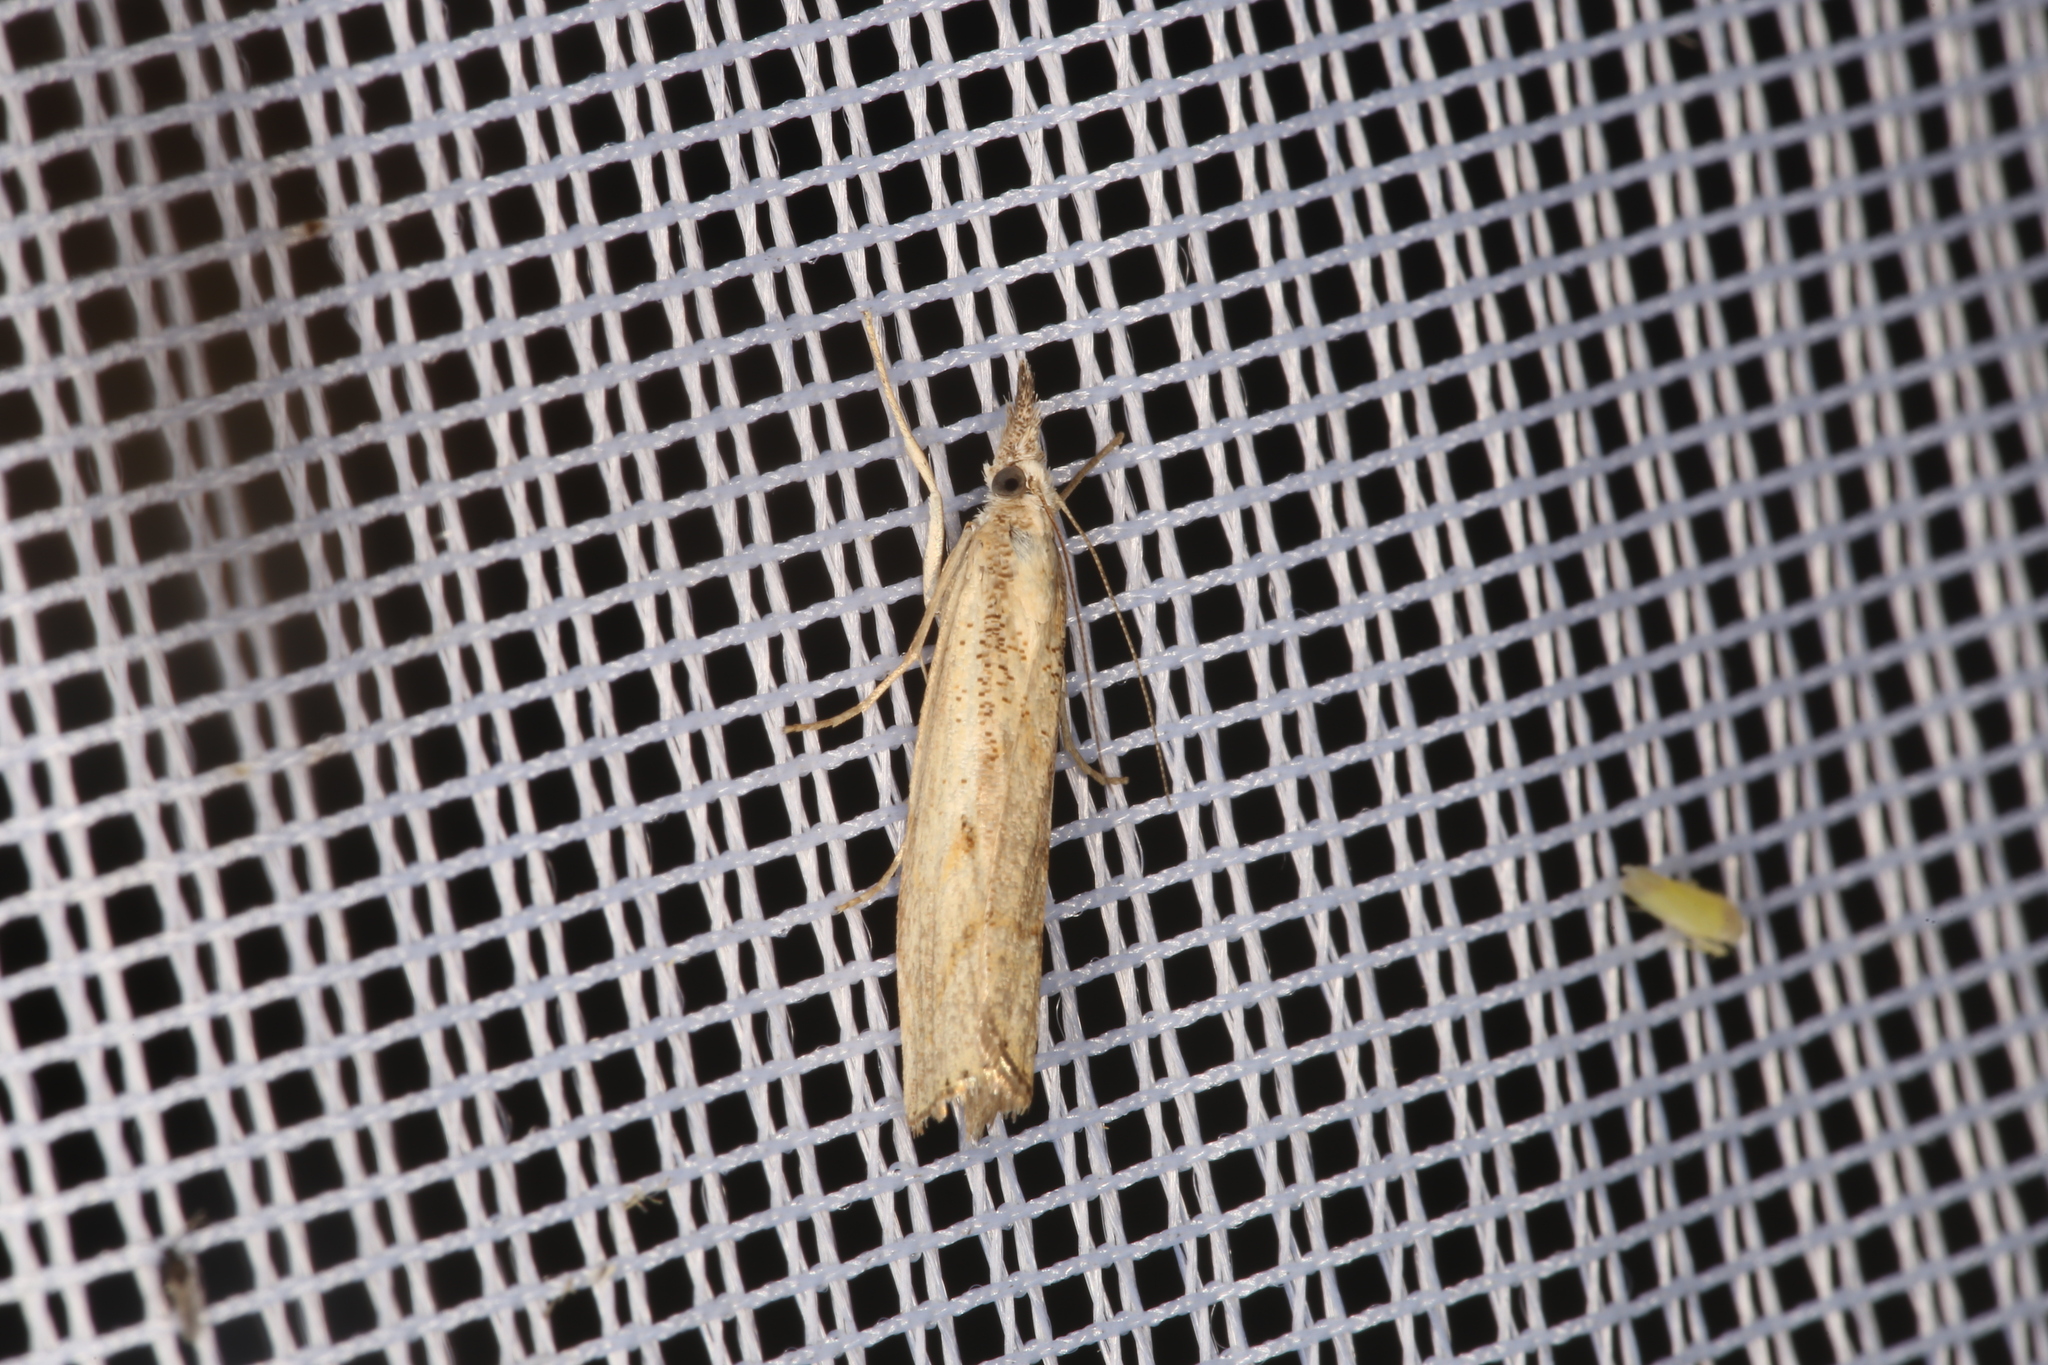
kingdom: Animalia
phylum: Arthropoda
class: Insecta
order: Lepidoptera
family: Crambidae
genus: Agriphila
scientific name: Agriphila inquinatella
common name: Barred grass-veneer
